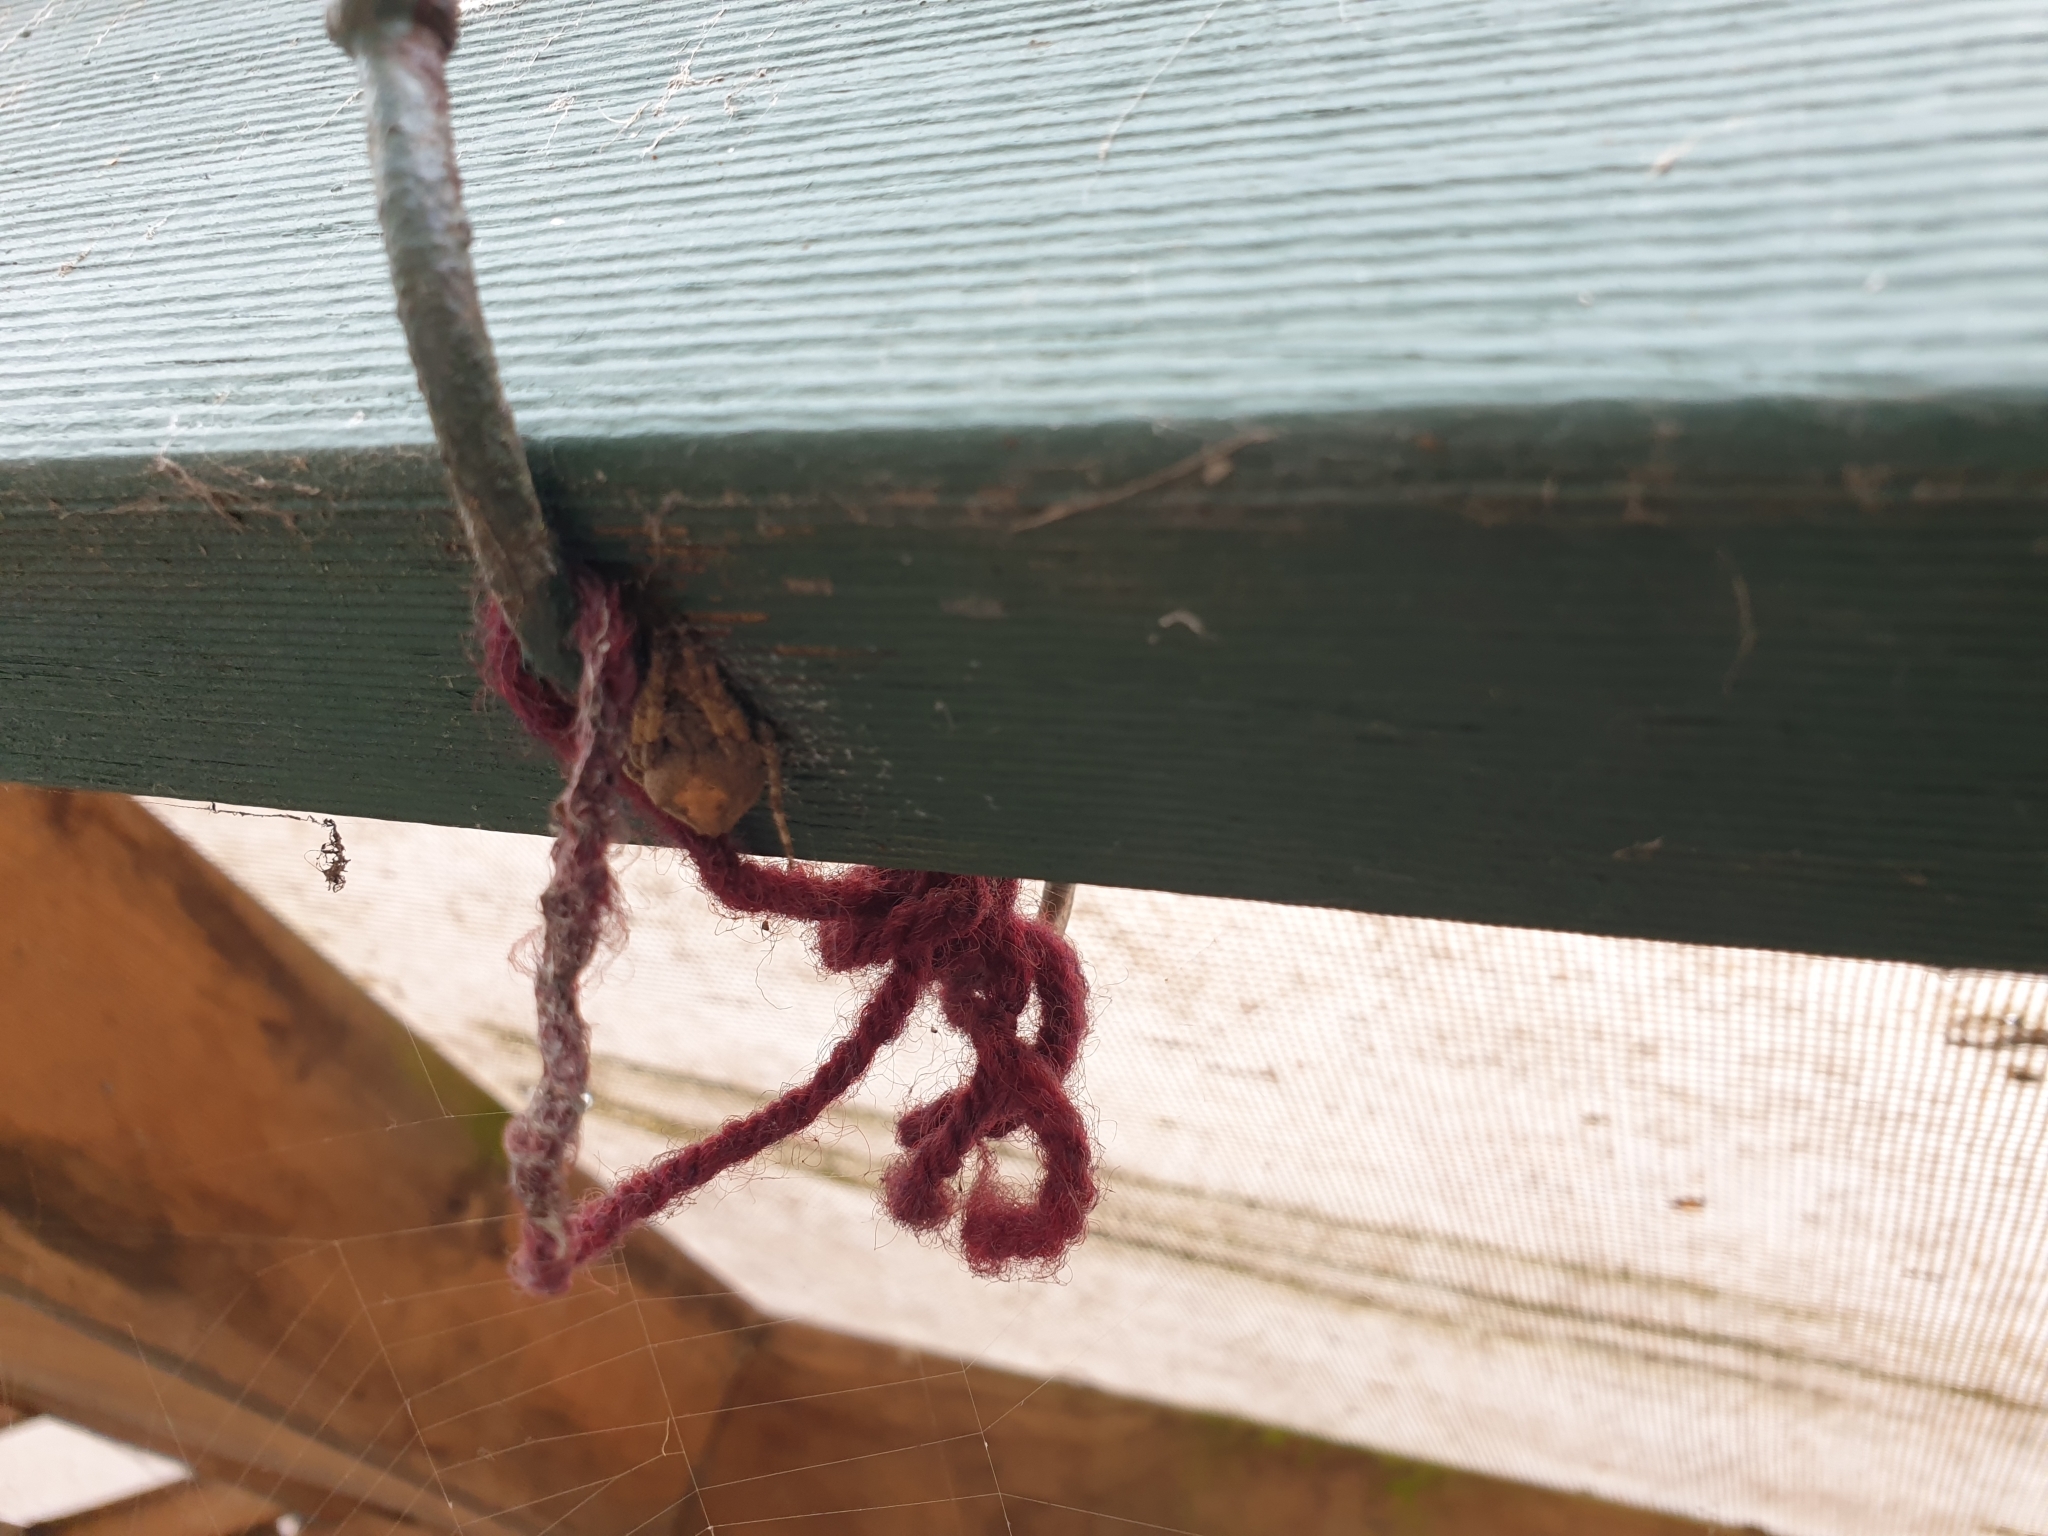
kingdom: Animalia
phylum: Arthropoda
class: Arachnida
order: Araneae
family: Araneidae
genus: Eriophora
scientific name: Eriophora pustulosa
